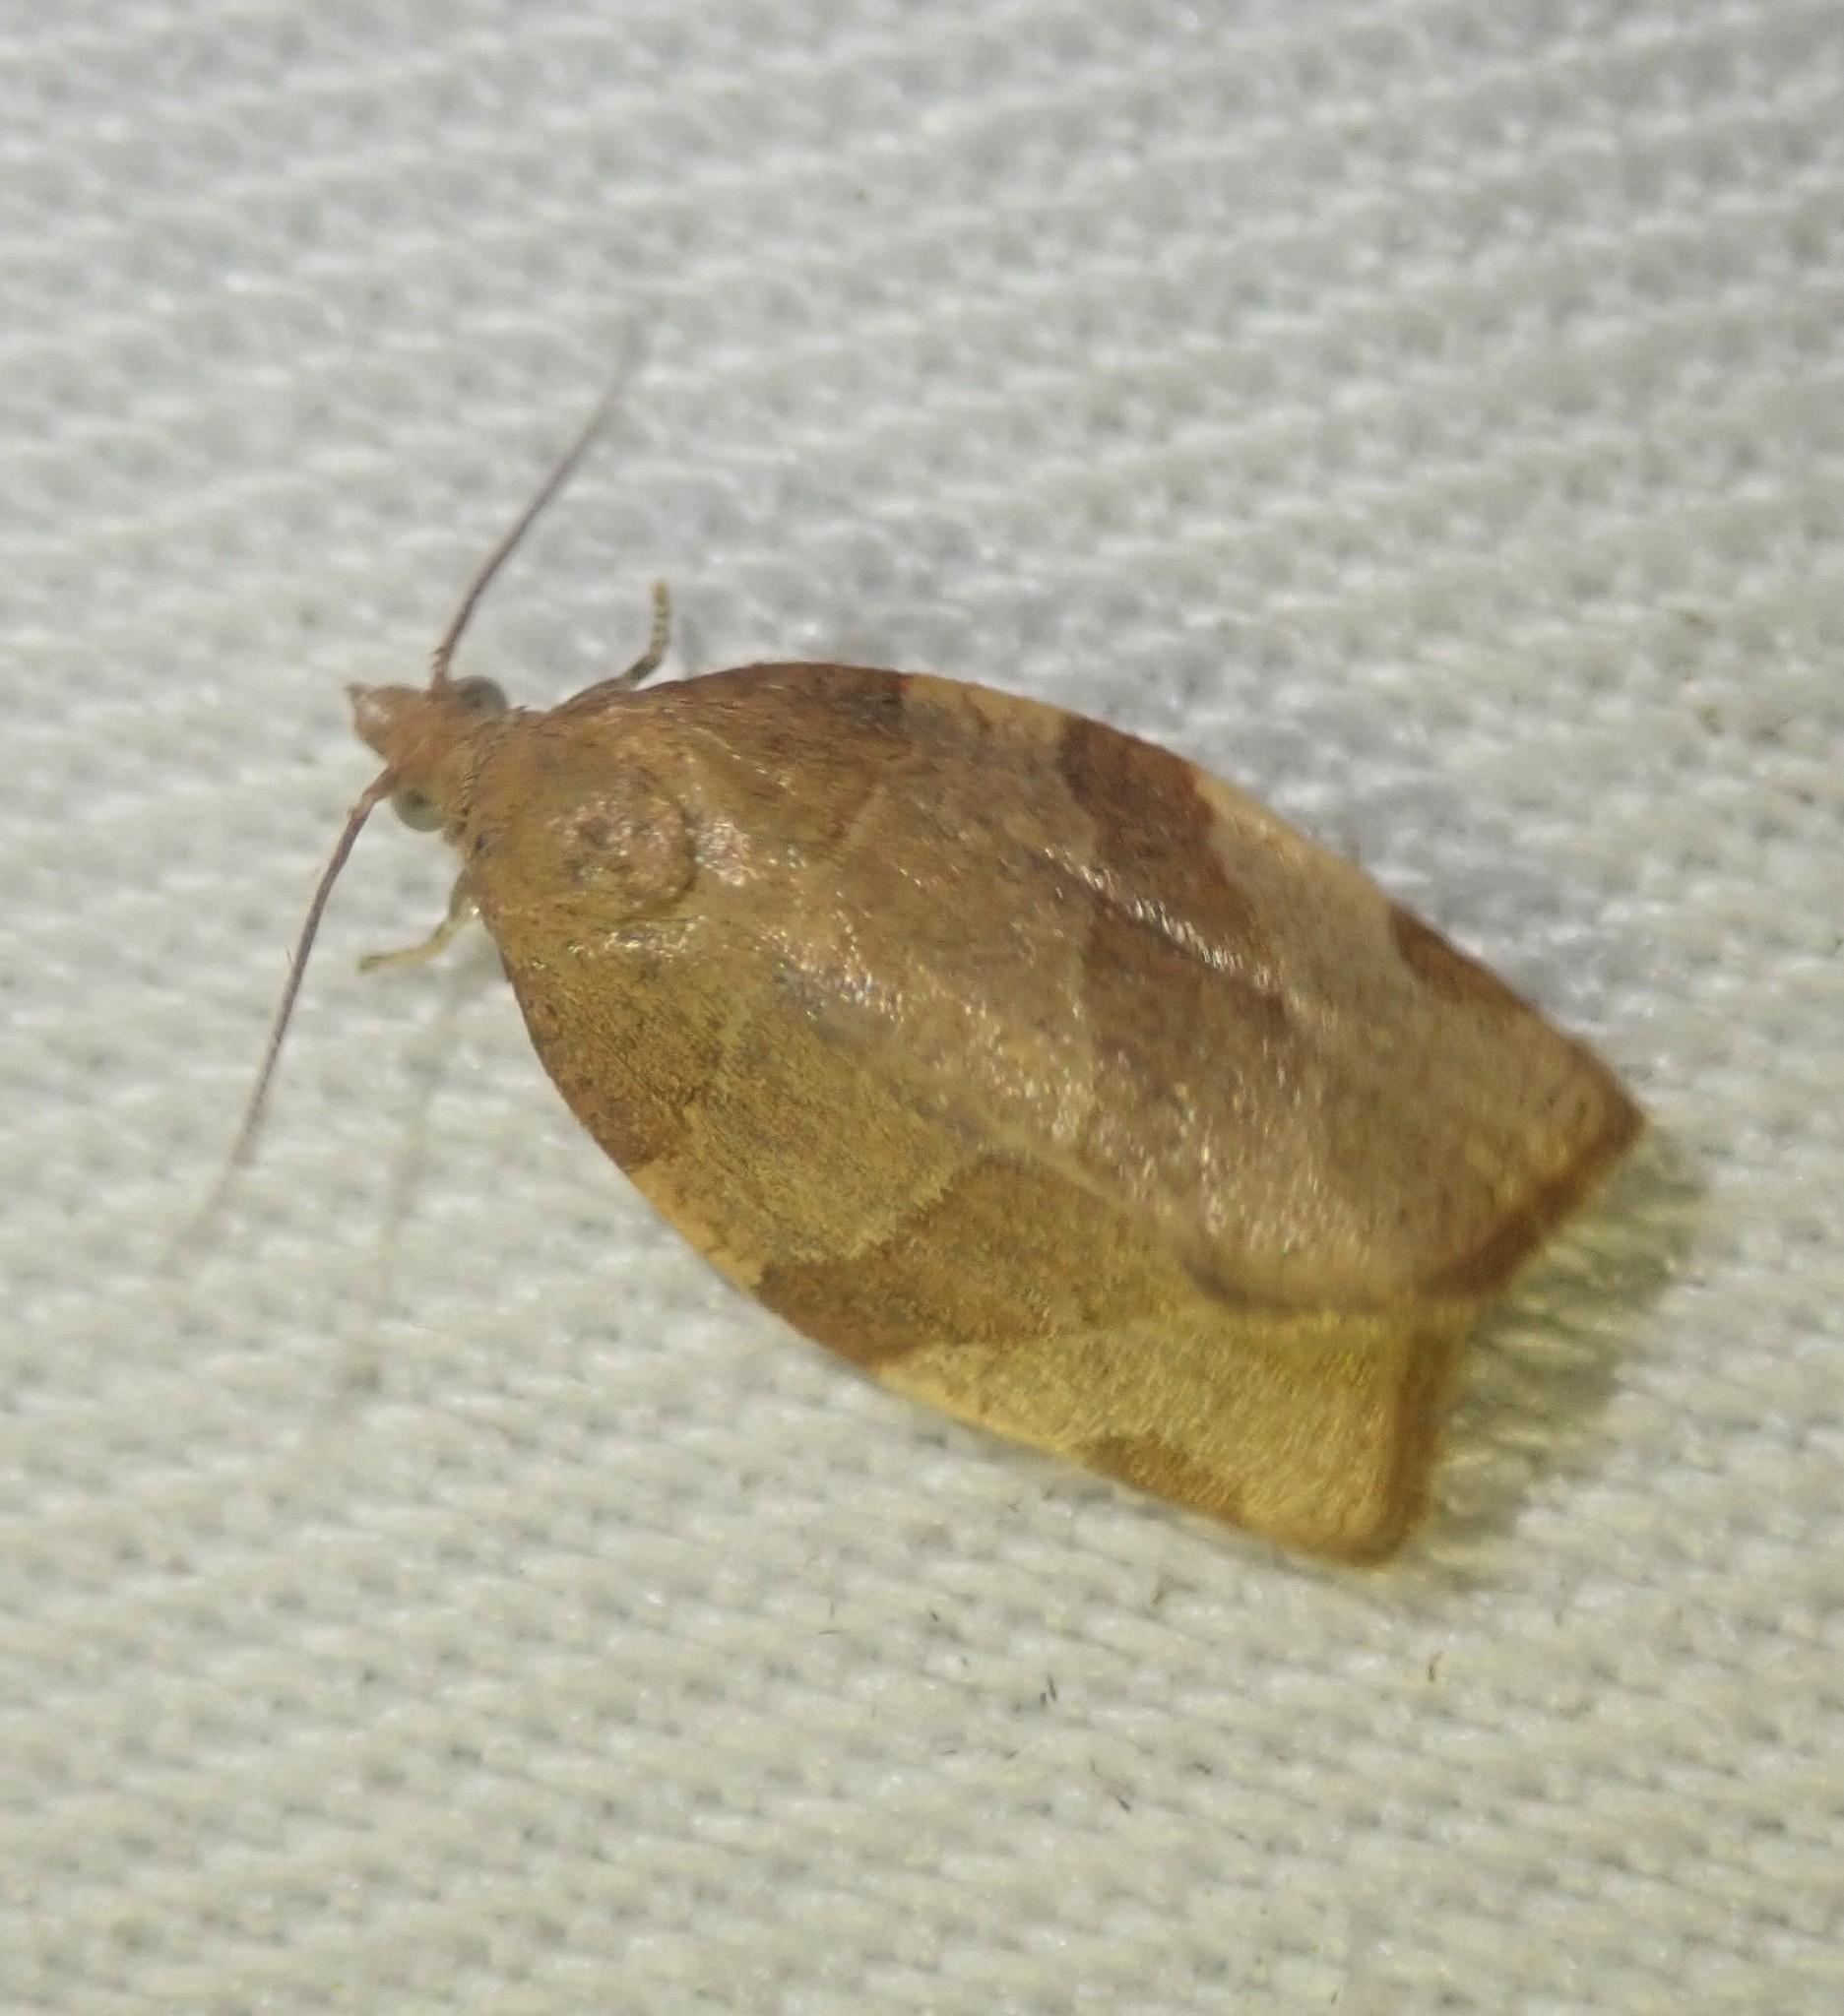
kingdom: Animalia
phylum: Arthropoda
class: Insecta
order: Lepidoptera
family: Tortricidae
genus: Pandemis
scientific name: Pandemis cerasana
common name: Barred fruit-tree tortrix
